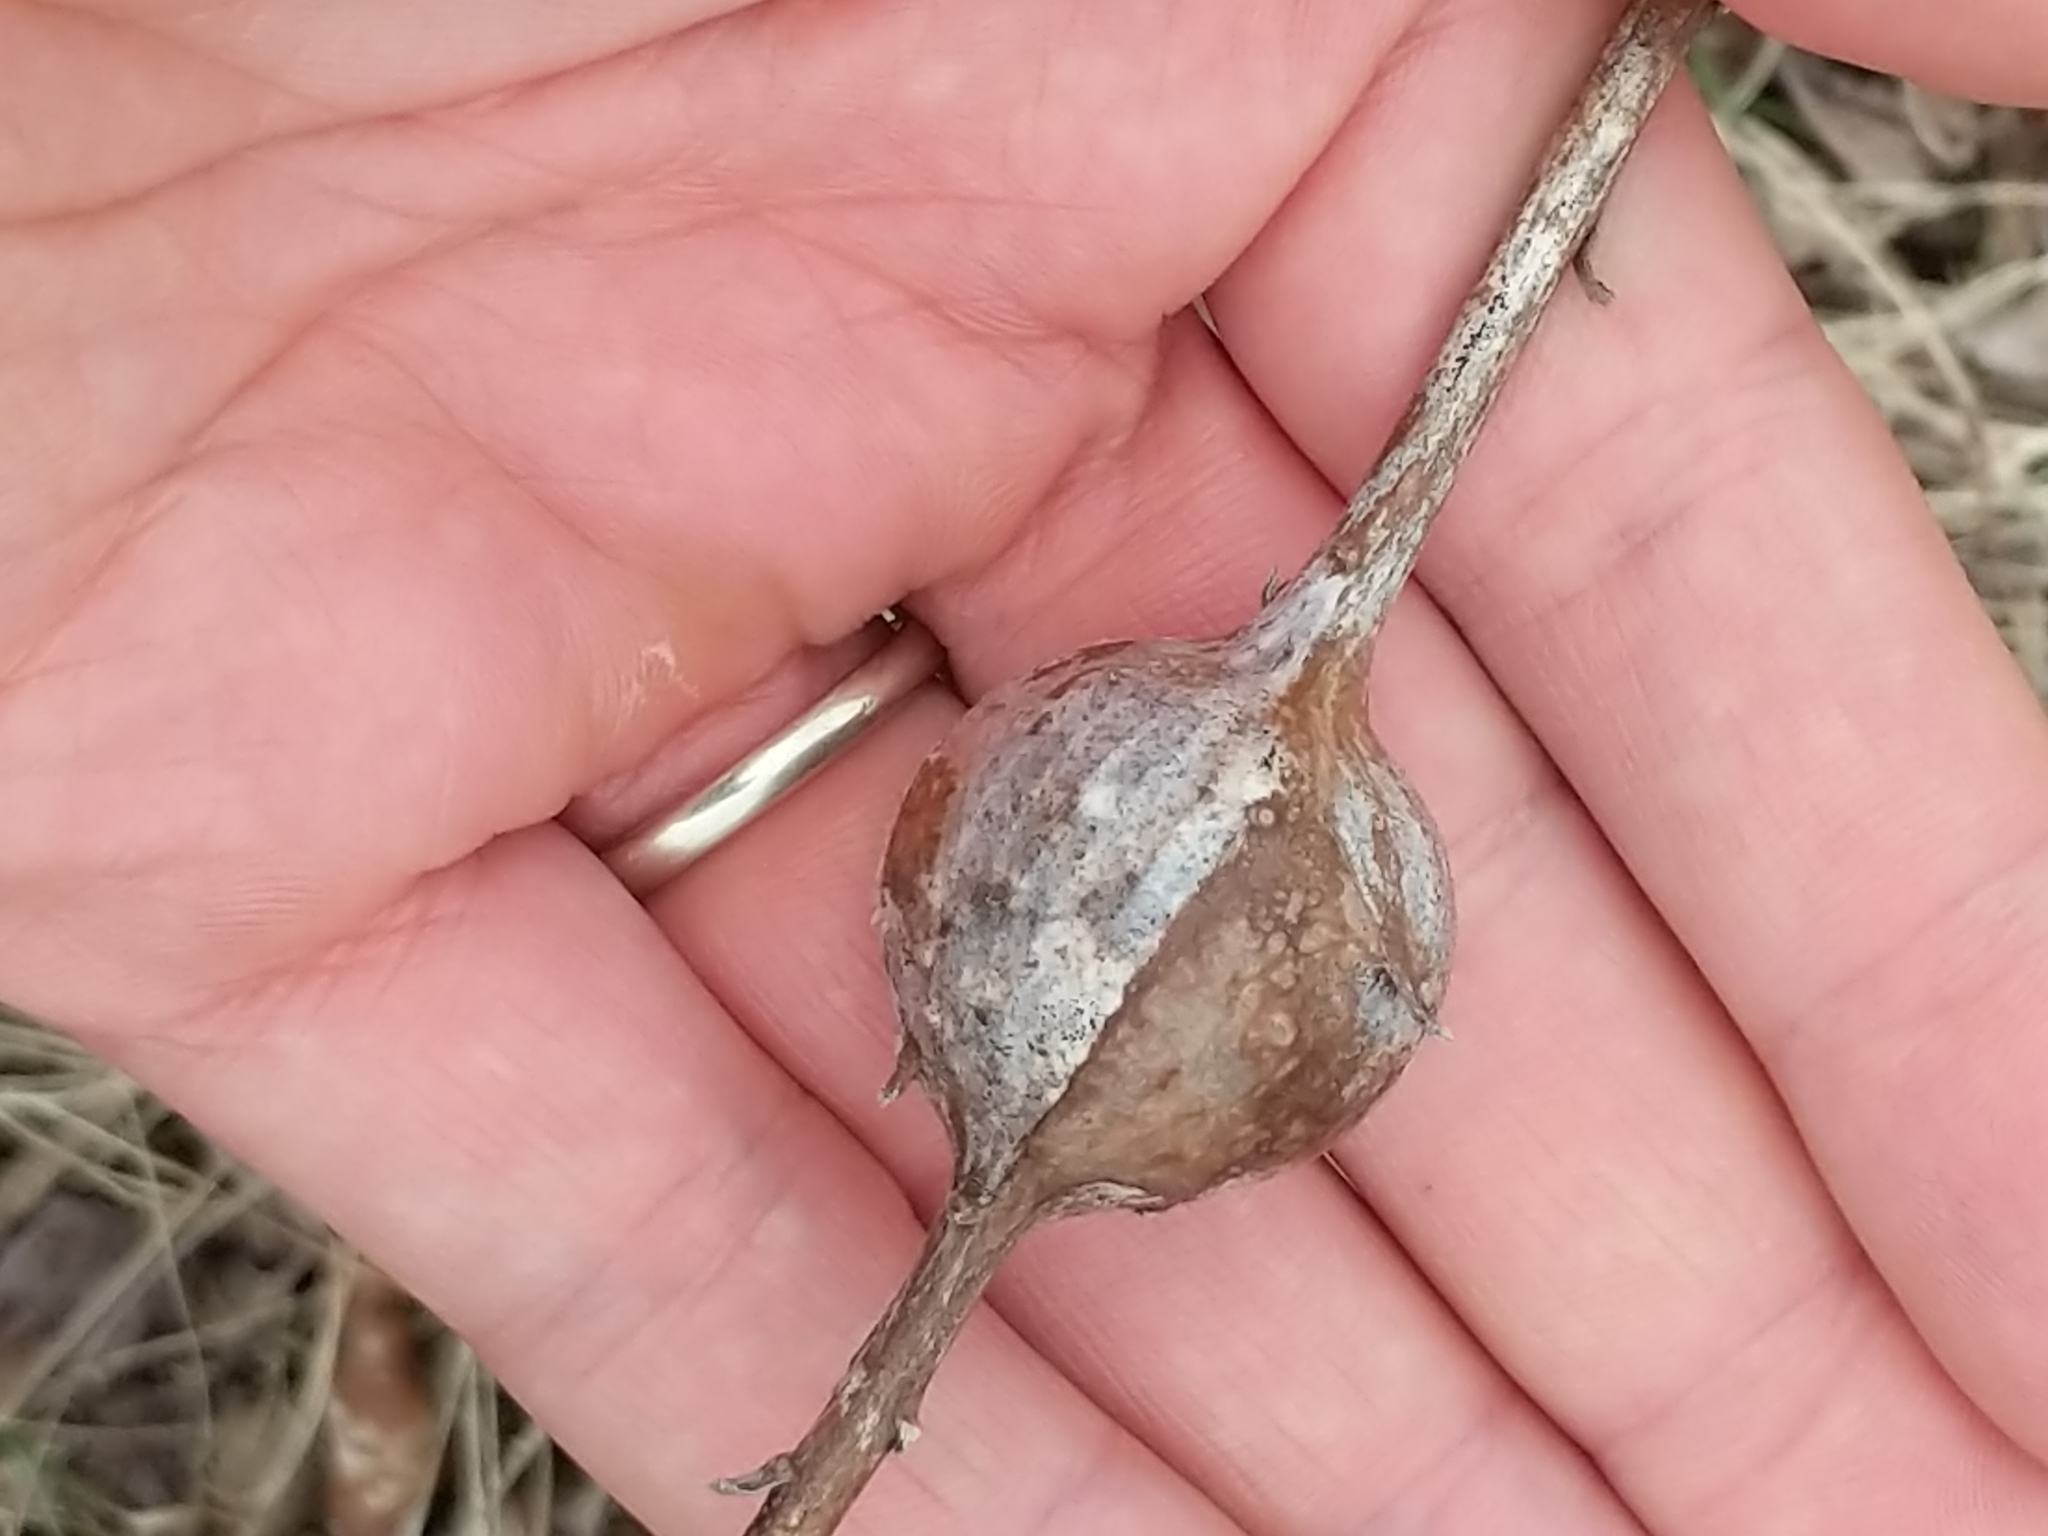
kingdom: Animalia
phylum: Arthropoda
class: Insecta
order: Diptera
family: Tephritidae
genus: Eurosta
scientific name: Eurosta solidaginis
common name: Goldenrod gall fly
